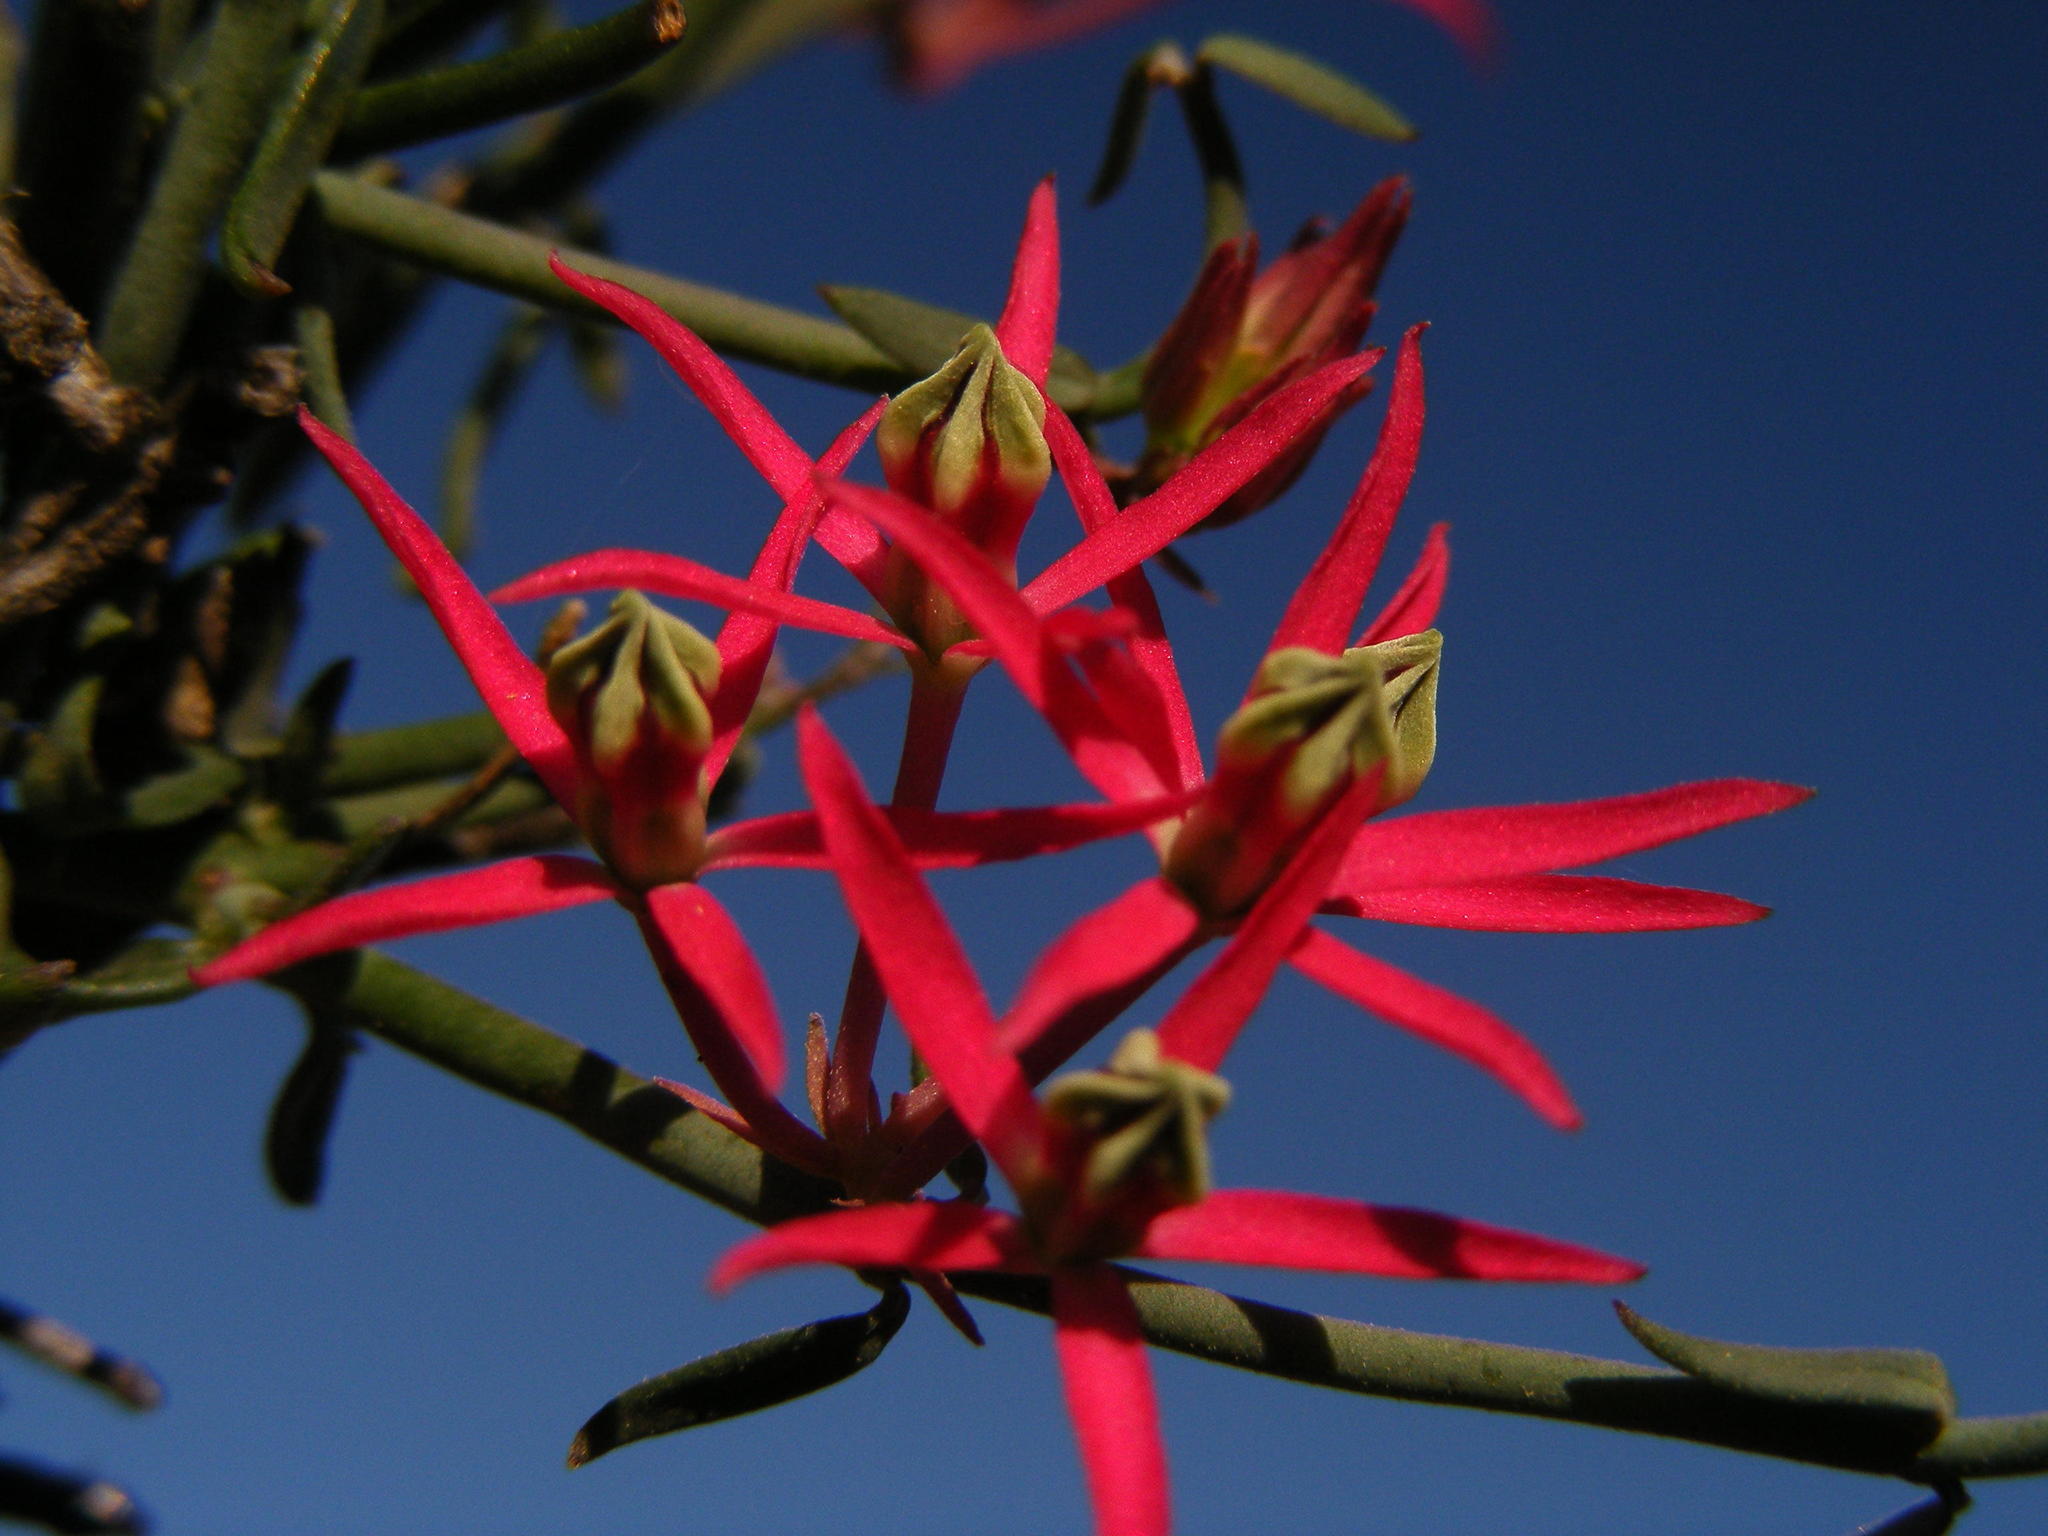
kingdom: Plantae
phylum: Tracheophyta
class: Magnoliopsida
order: Gentianales
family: Apocynaceae
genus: Microloma
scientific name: Microloma calycinum
